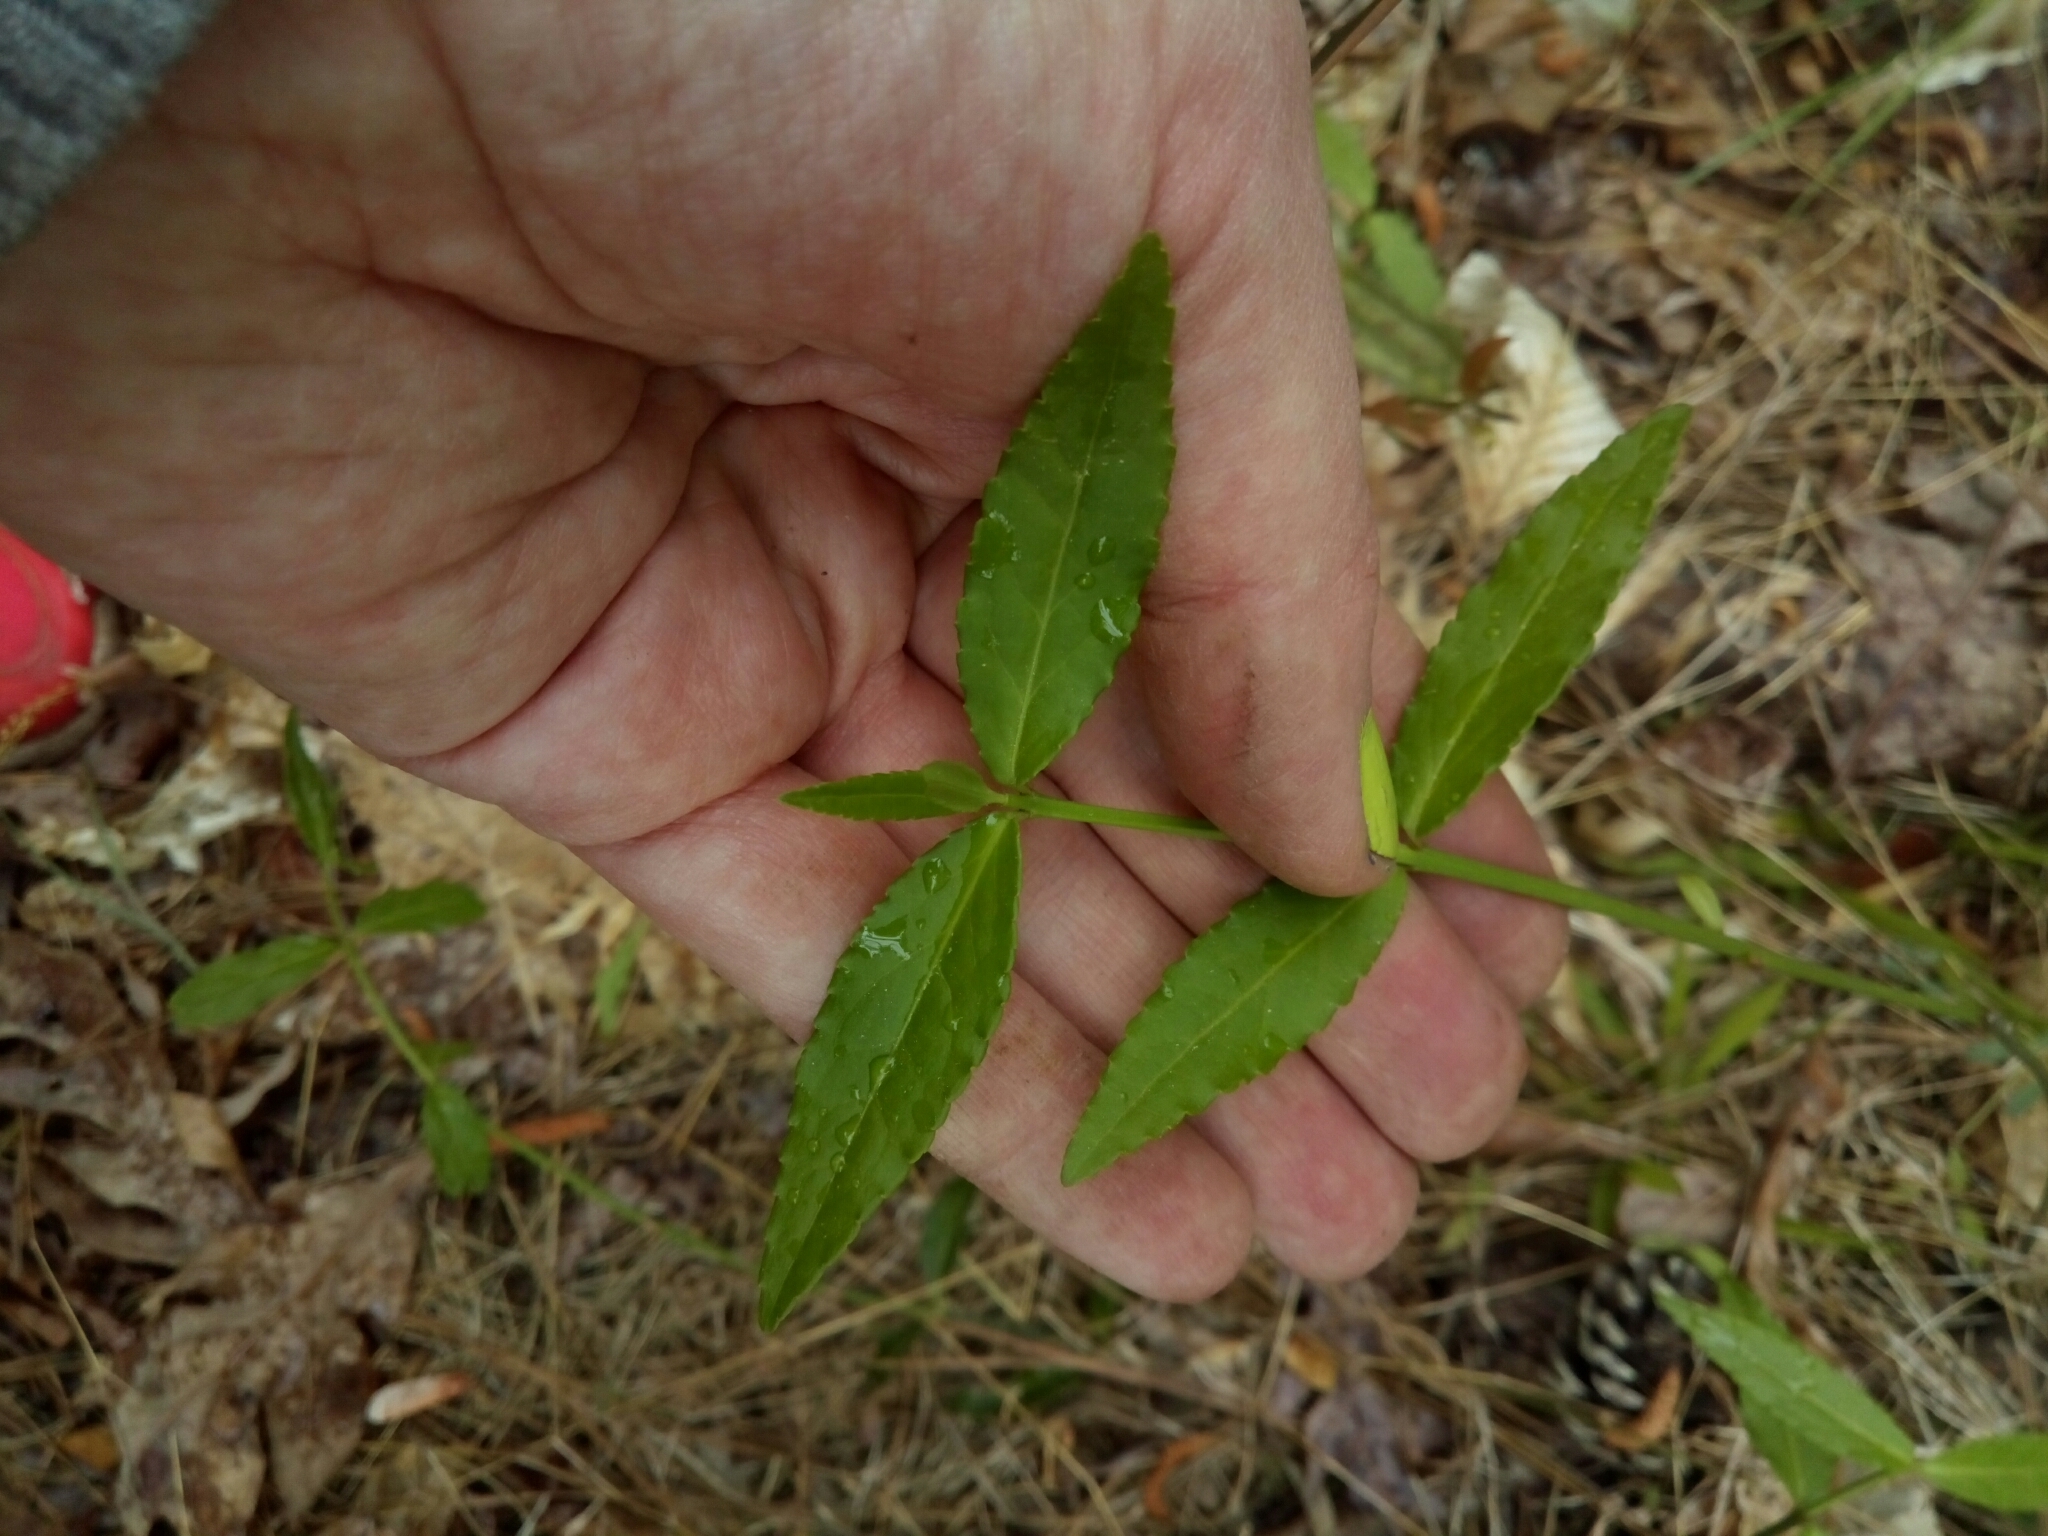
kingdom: Plantae
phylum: Tracheophyta
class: Magnoliopsida
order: Celastrales
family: Celastraceae
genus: Euonymus
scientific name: Euonymus americanus
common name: Bursting-heart
